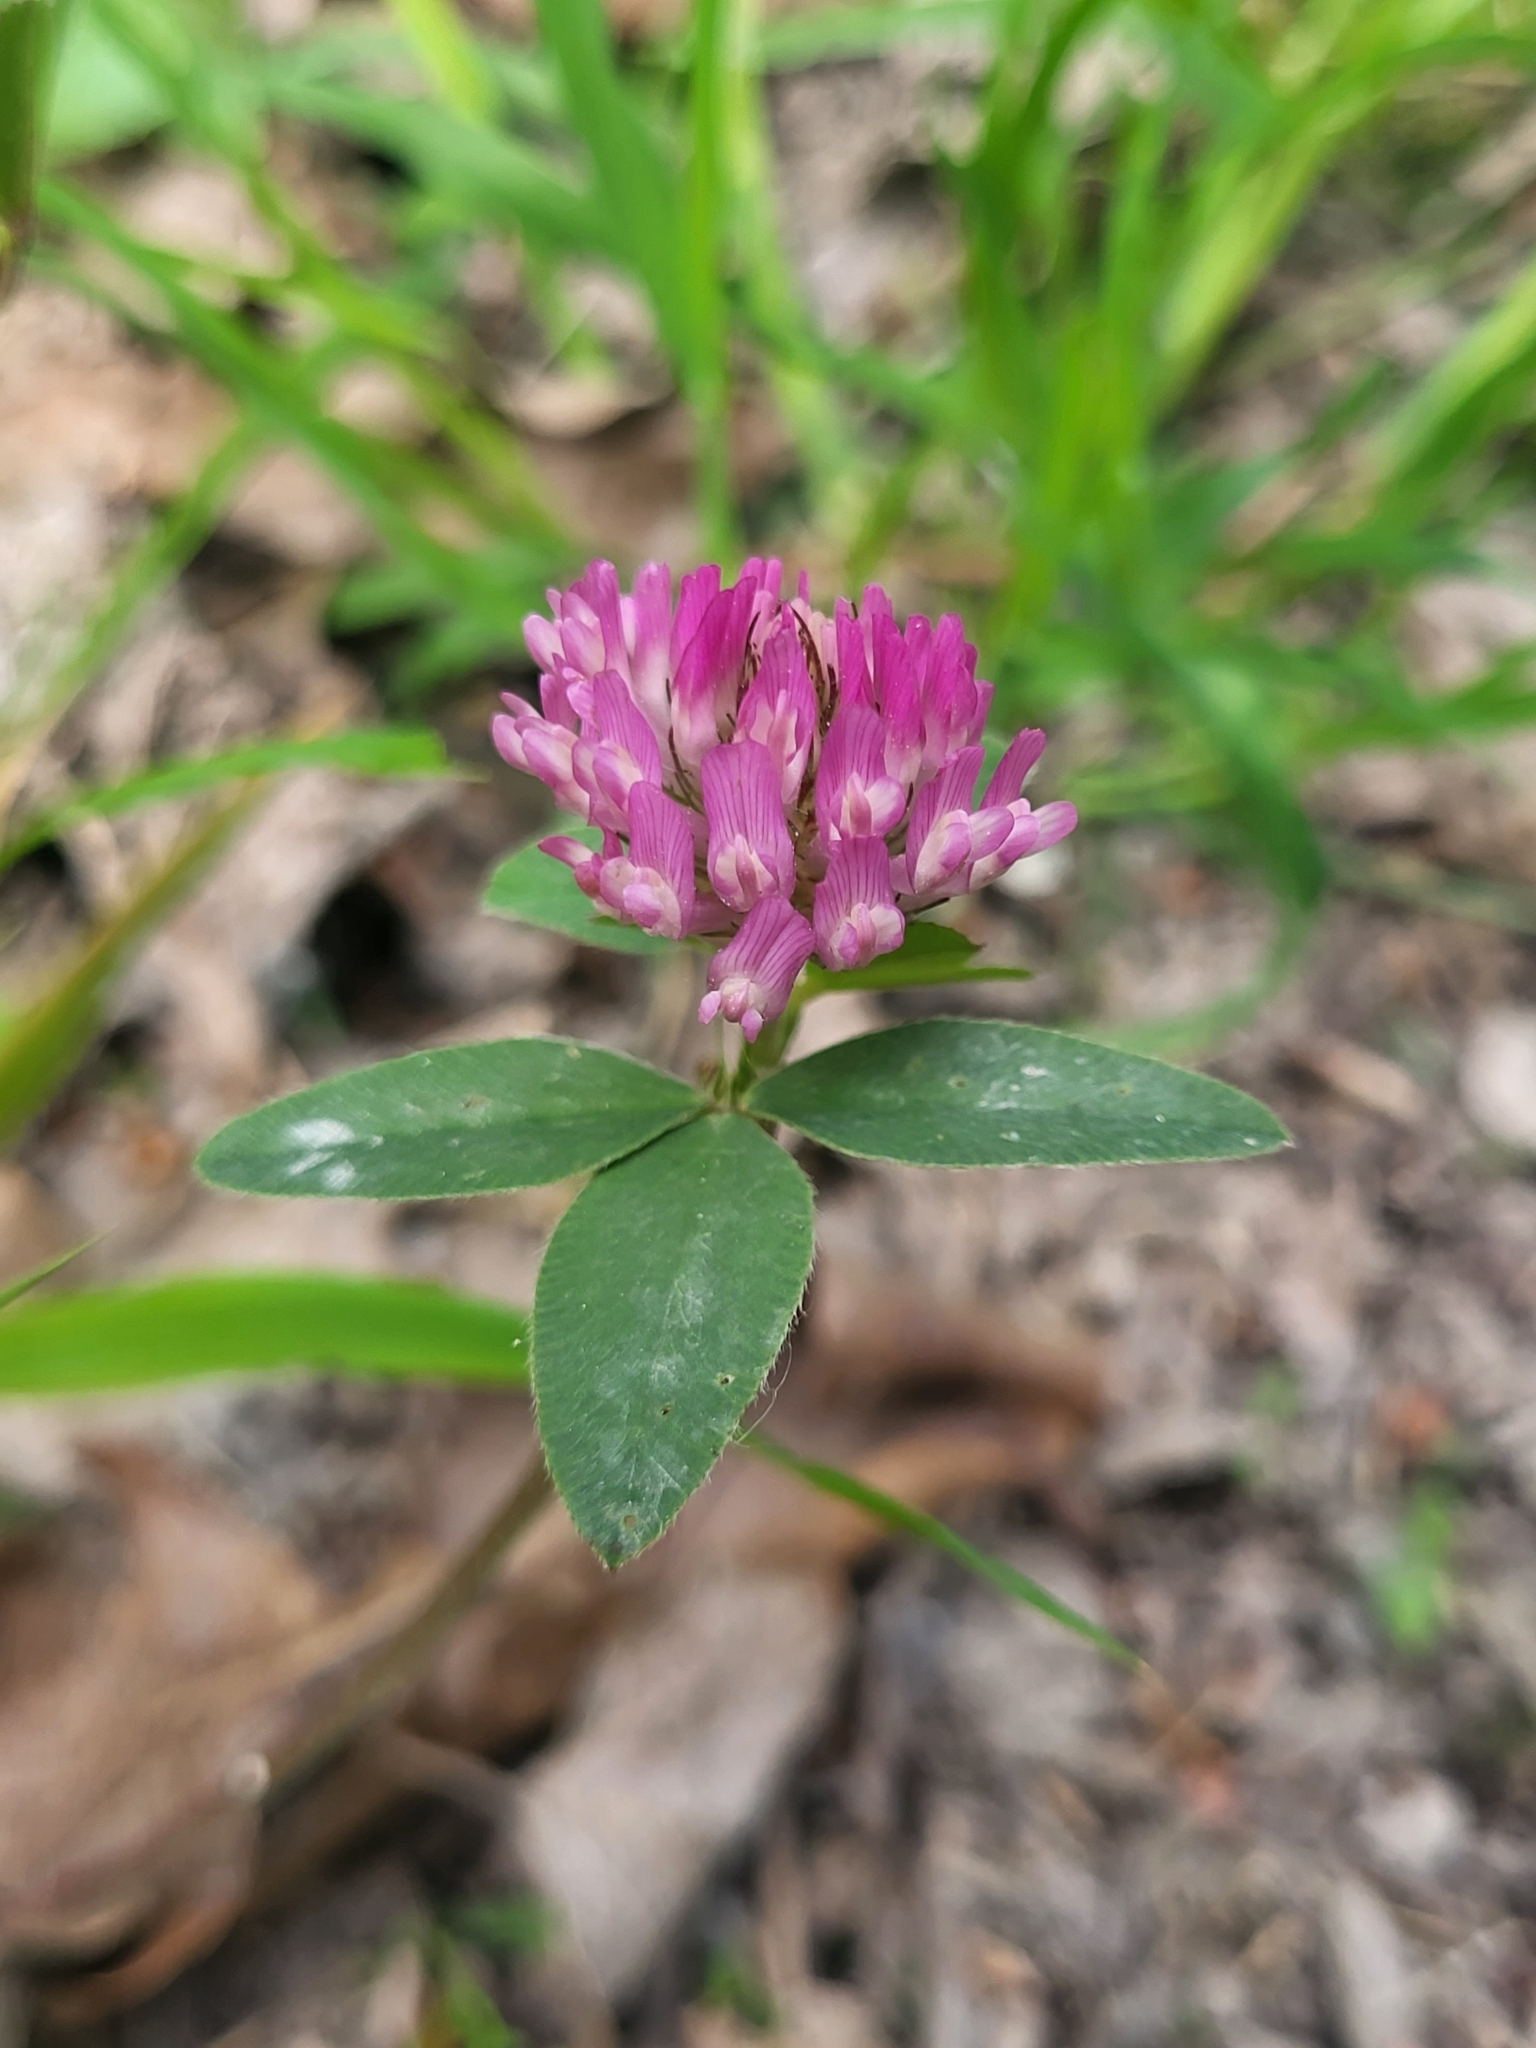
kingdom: Plantae
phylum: Tracheophyta
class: Magnoliopsida
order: Fabales
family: Fabaceae
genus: Trifolium
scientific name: Trifolium pratense
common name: Red clover
